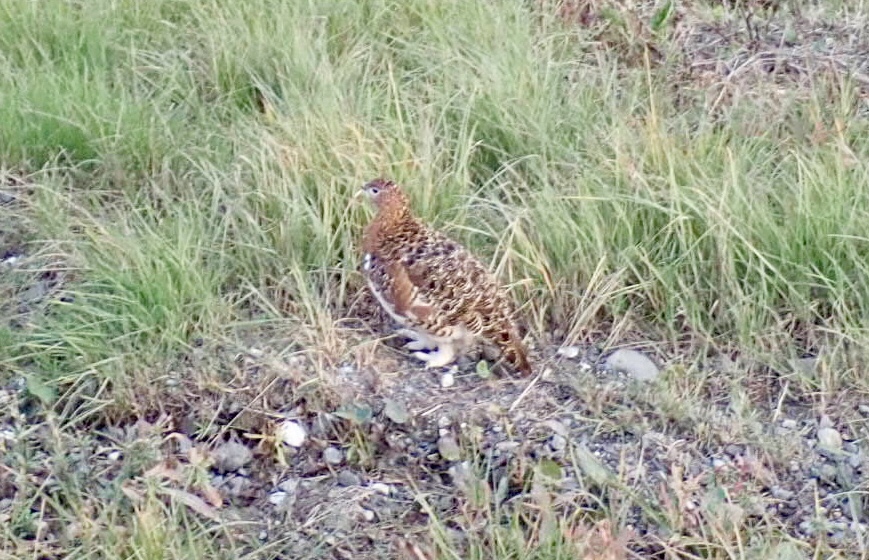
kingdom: Animalia
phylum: Chordata
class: Aves
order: Galliformes
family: Phasianidae
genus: Lagopus
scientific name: Lagopus lagopus
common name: Willow ptarmigan
